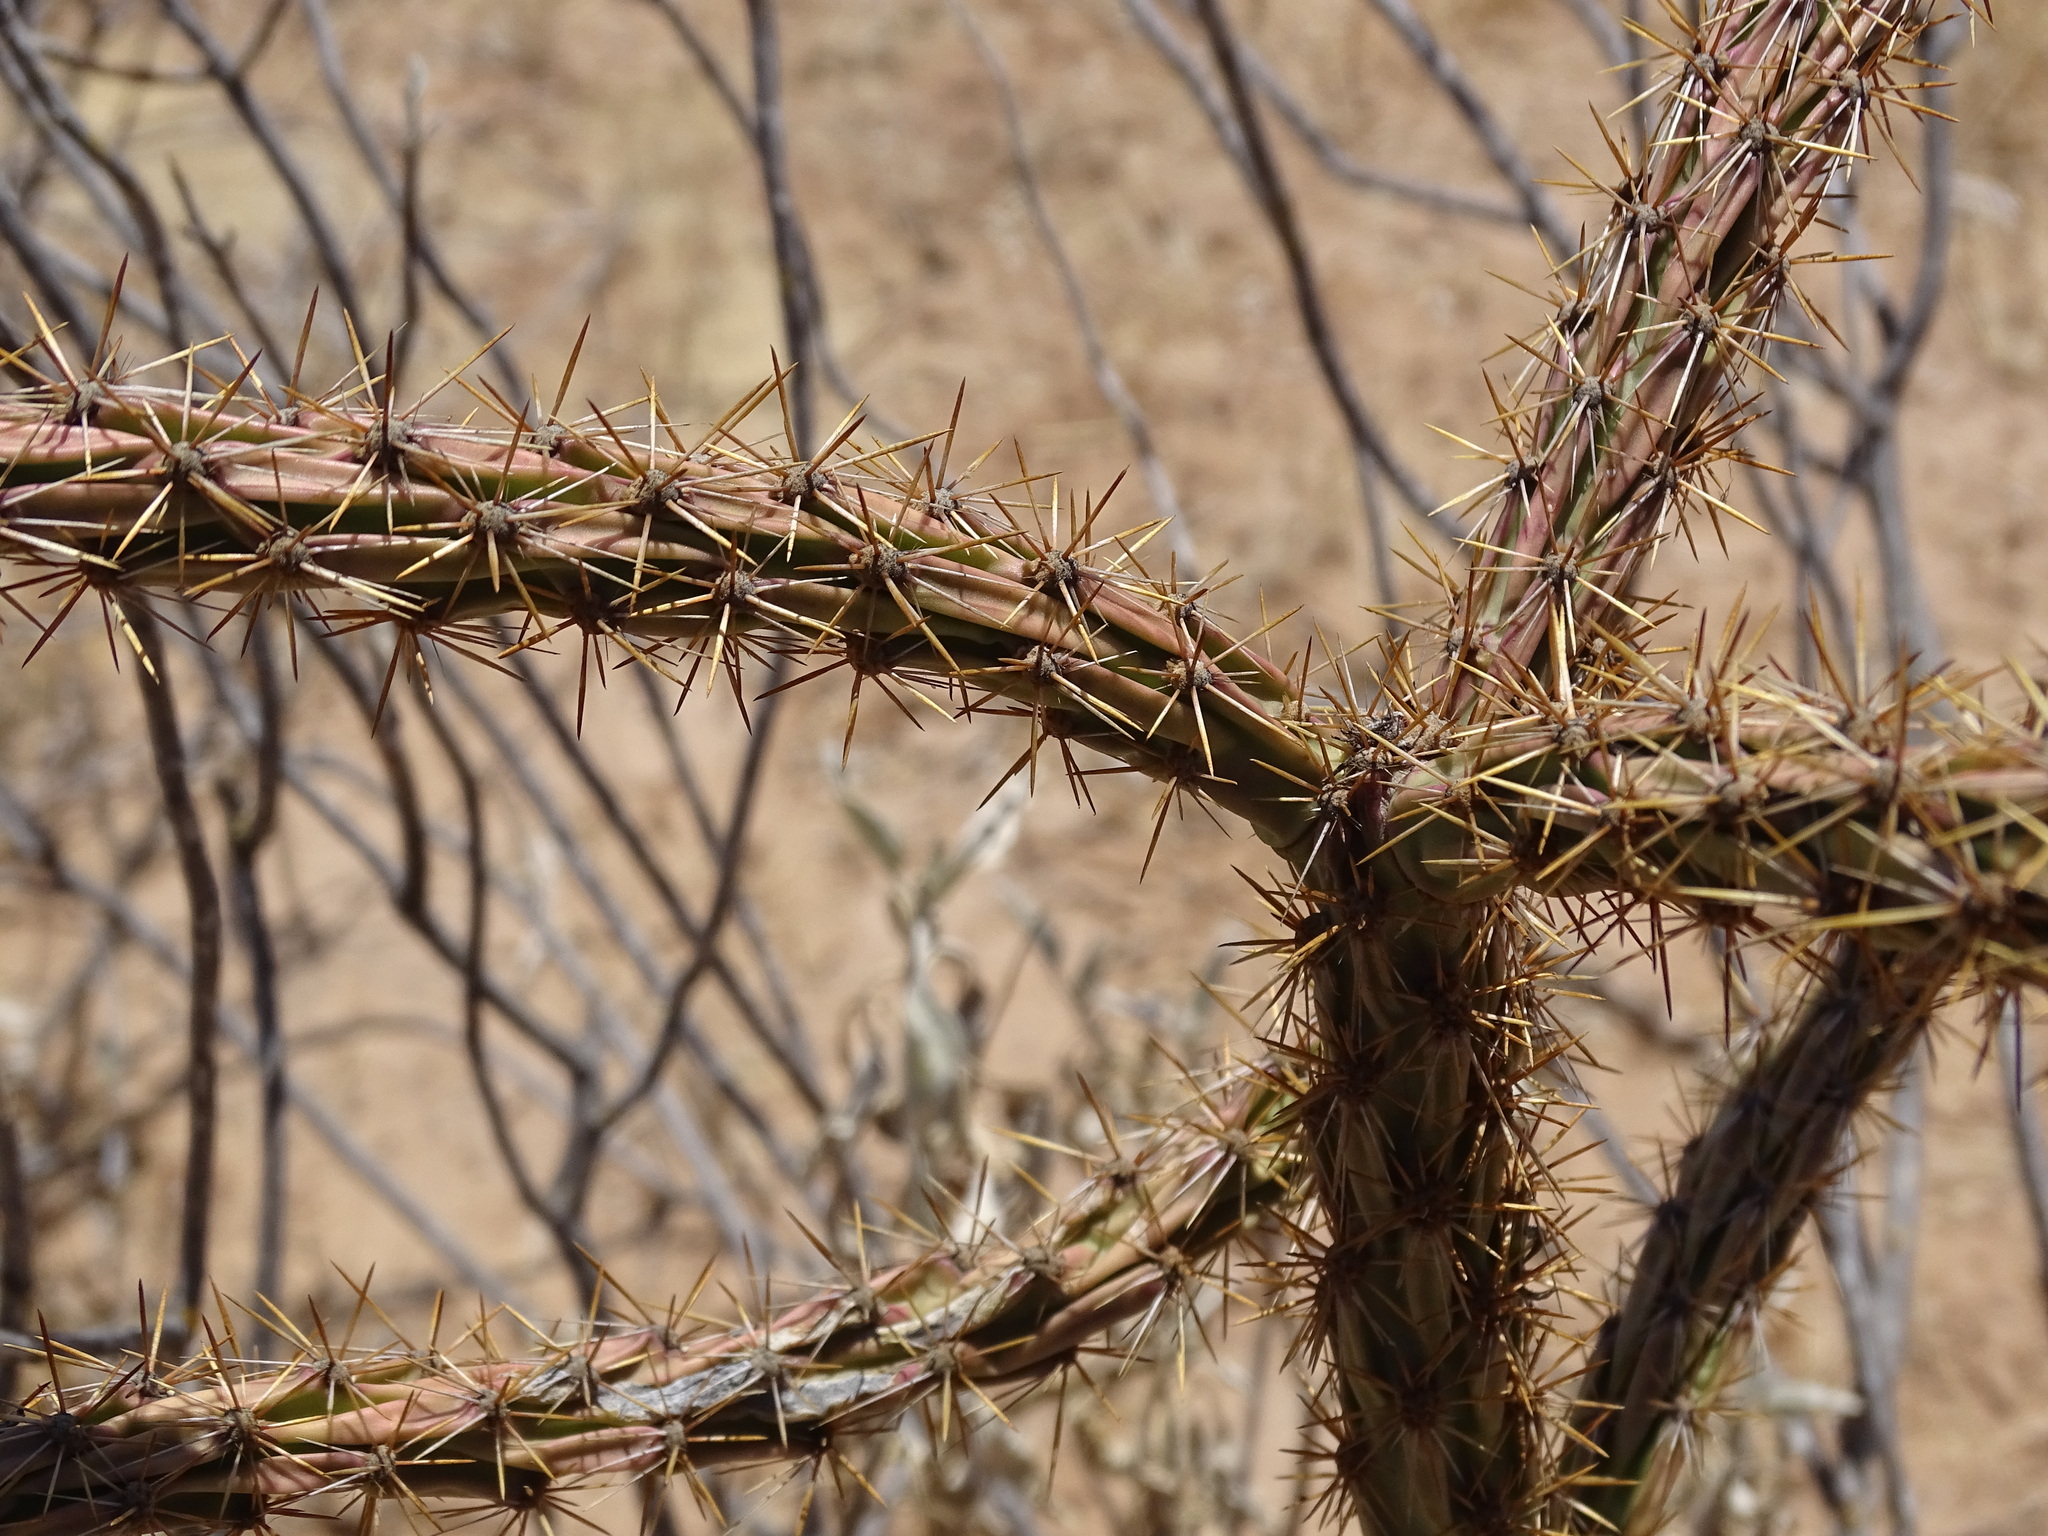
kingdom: Plantae
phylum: Tracheophyta
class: Magnoliopsida
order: Caryophyllales
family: Cactaceae
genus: Cylindropuntia
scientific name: Cylindropuntia thurberi
